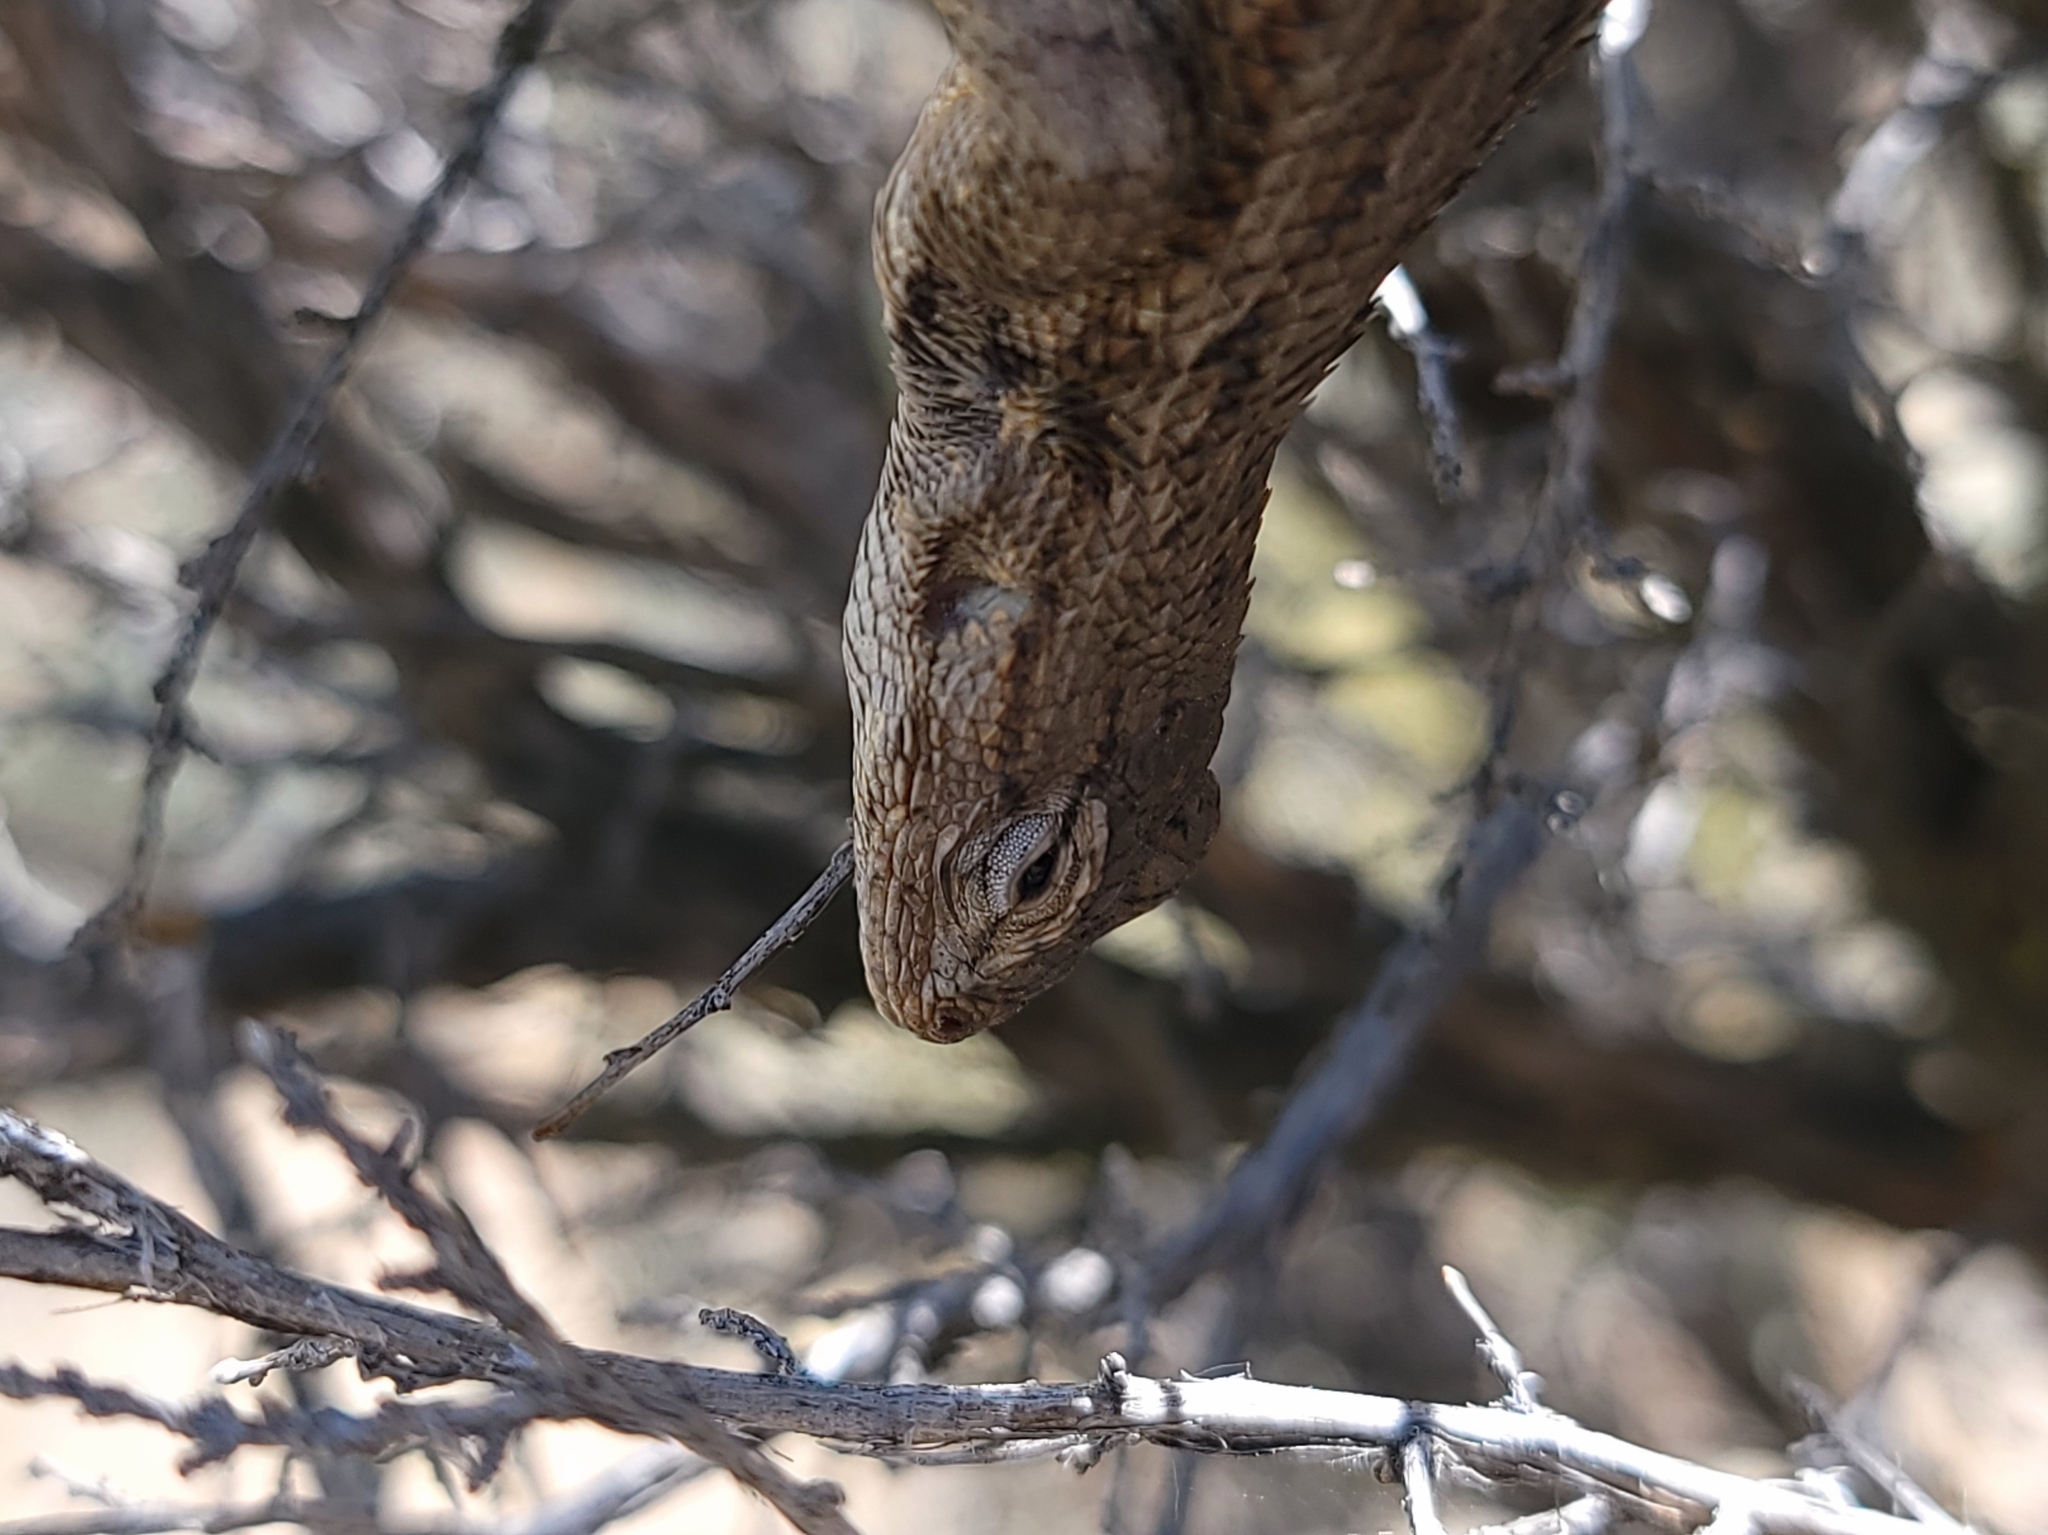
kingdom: Animalia
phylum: Chordata
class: Squamata
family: Phrynosomatidae
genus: Sceloporus
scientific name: Sceloporus occidentalis
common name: Western fence lizard
